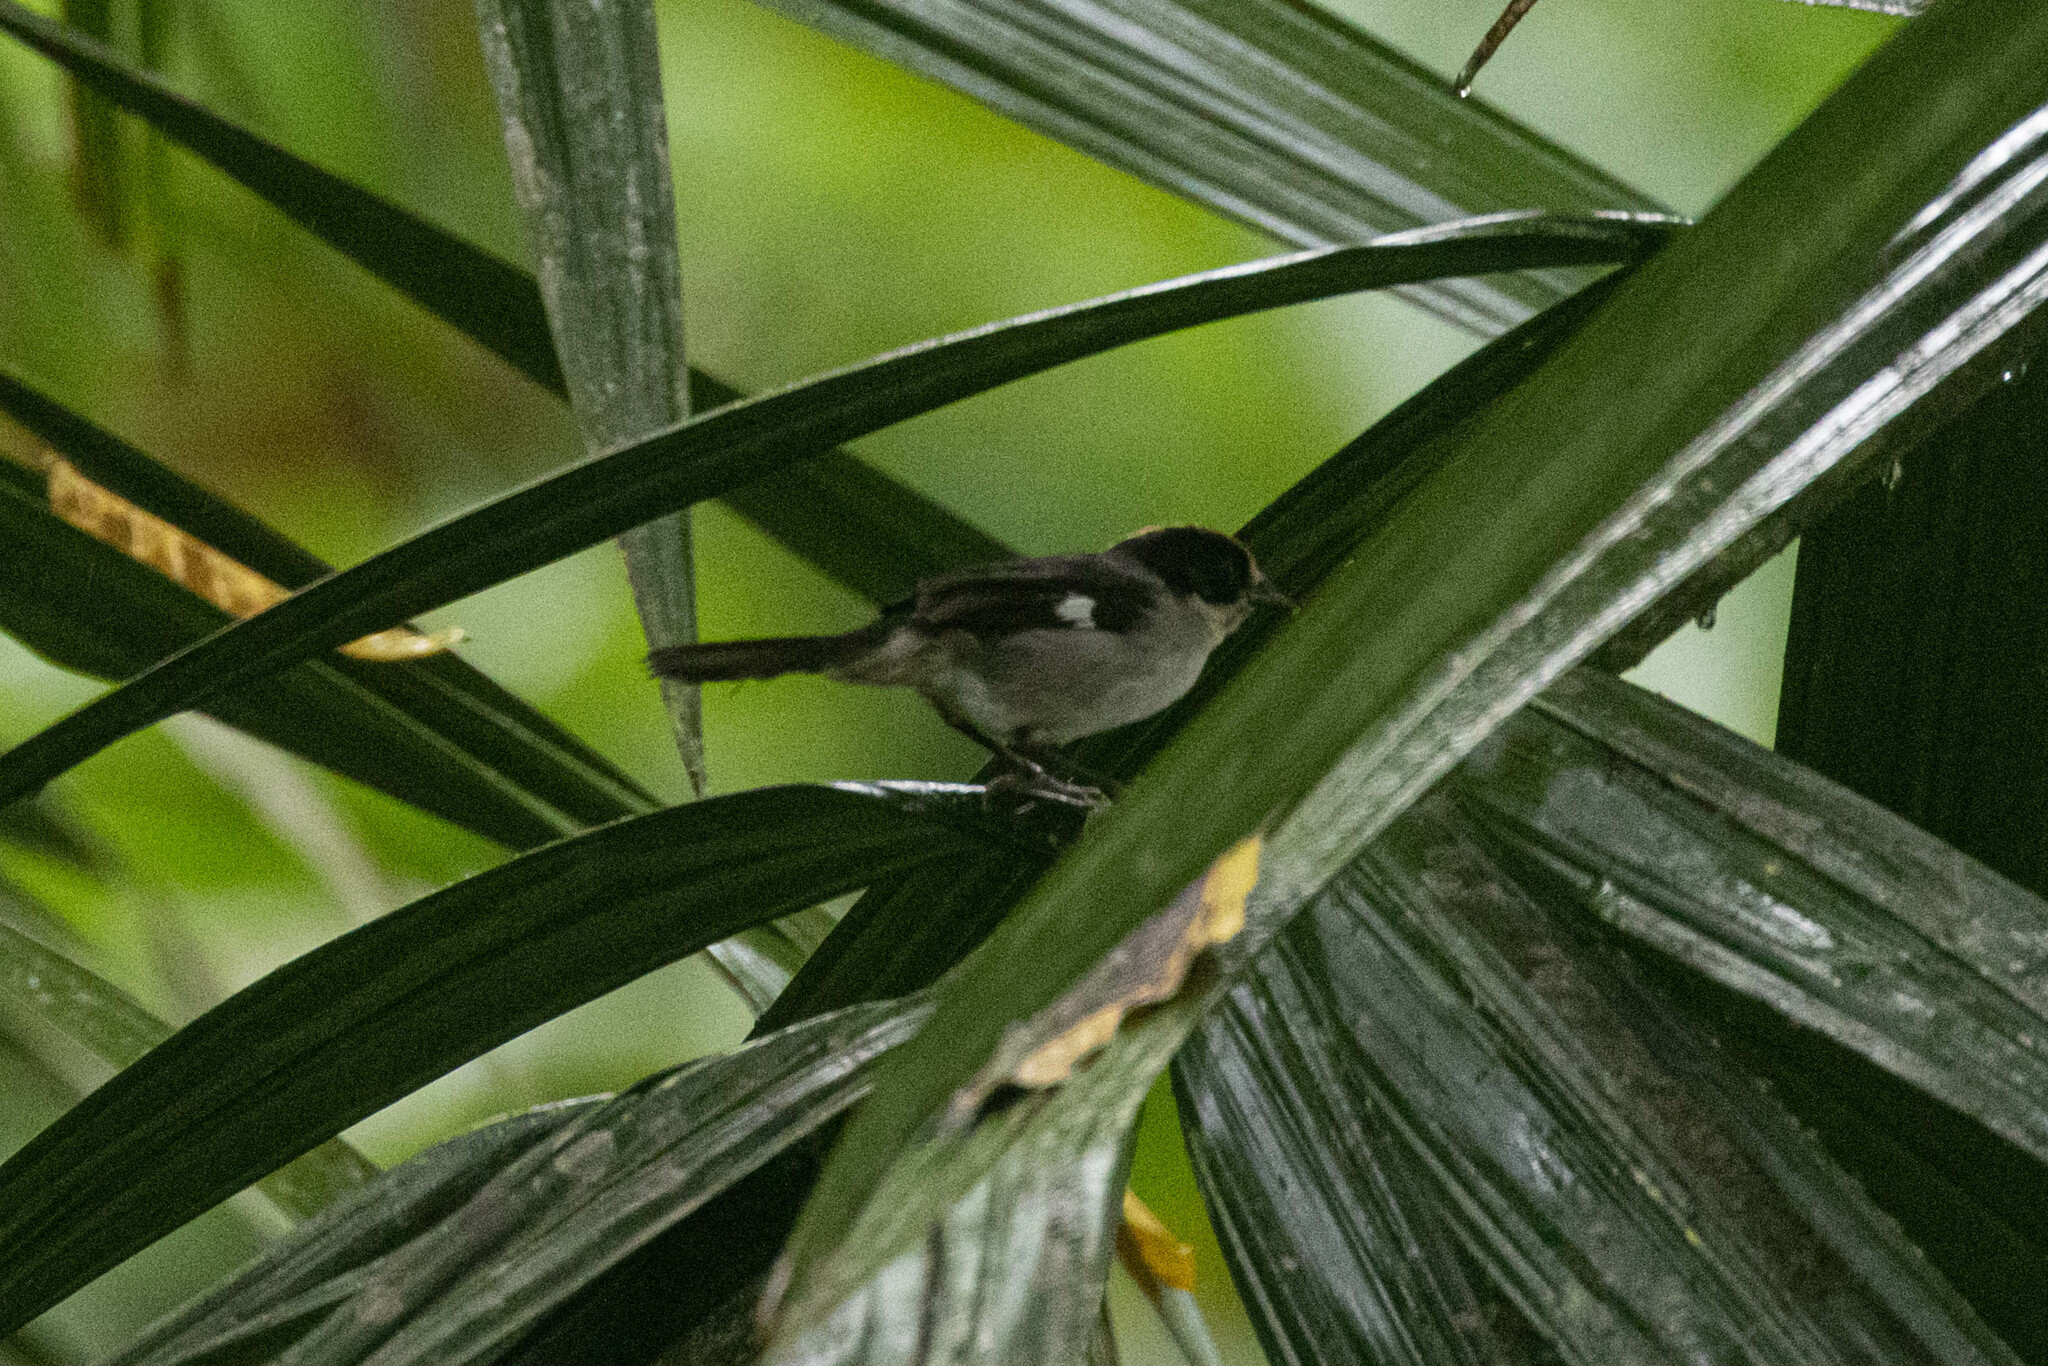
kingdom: Animalia
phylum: Chordata
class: Aves
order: Passeriformes
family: Passerellidae
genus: Atlapetes
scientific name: Atlapetes leucopterus
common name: White-winged brushfinch
